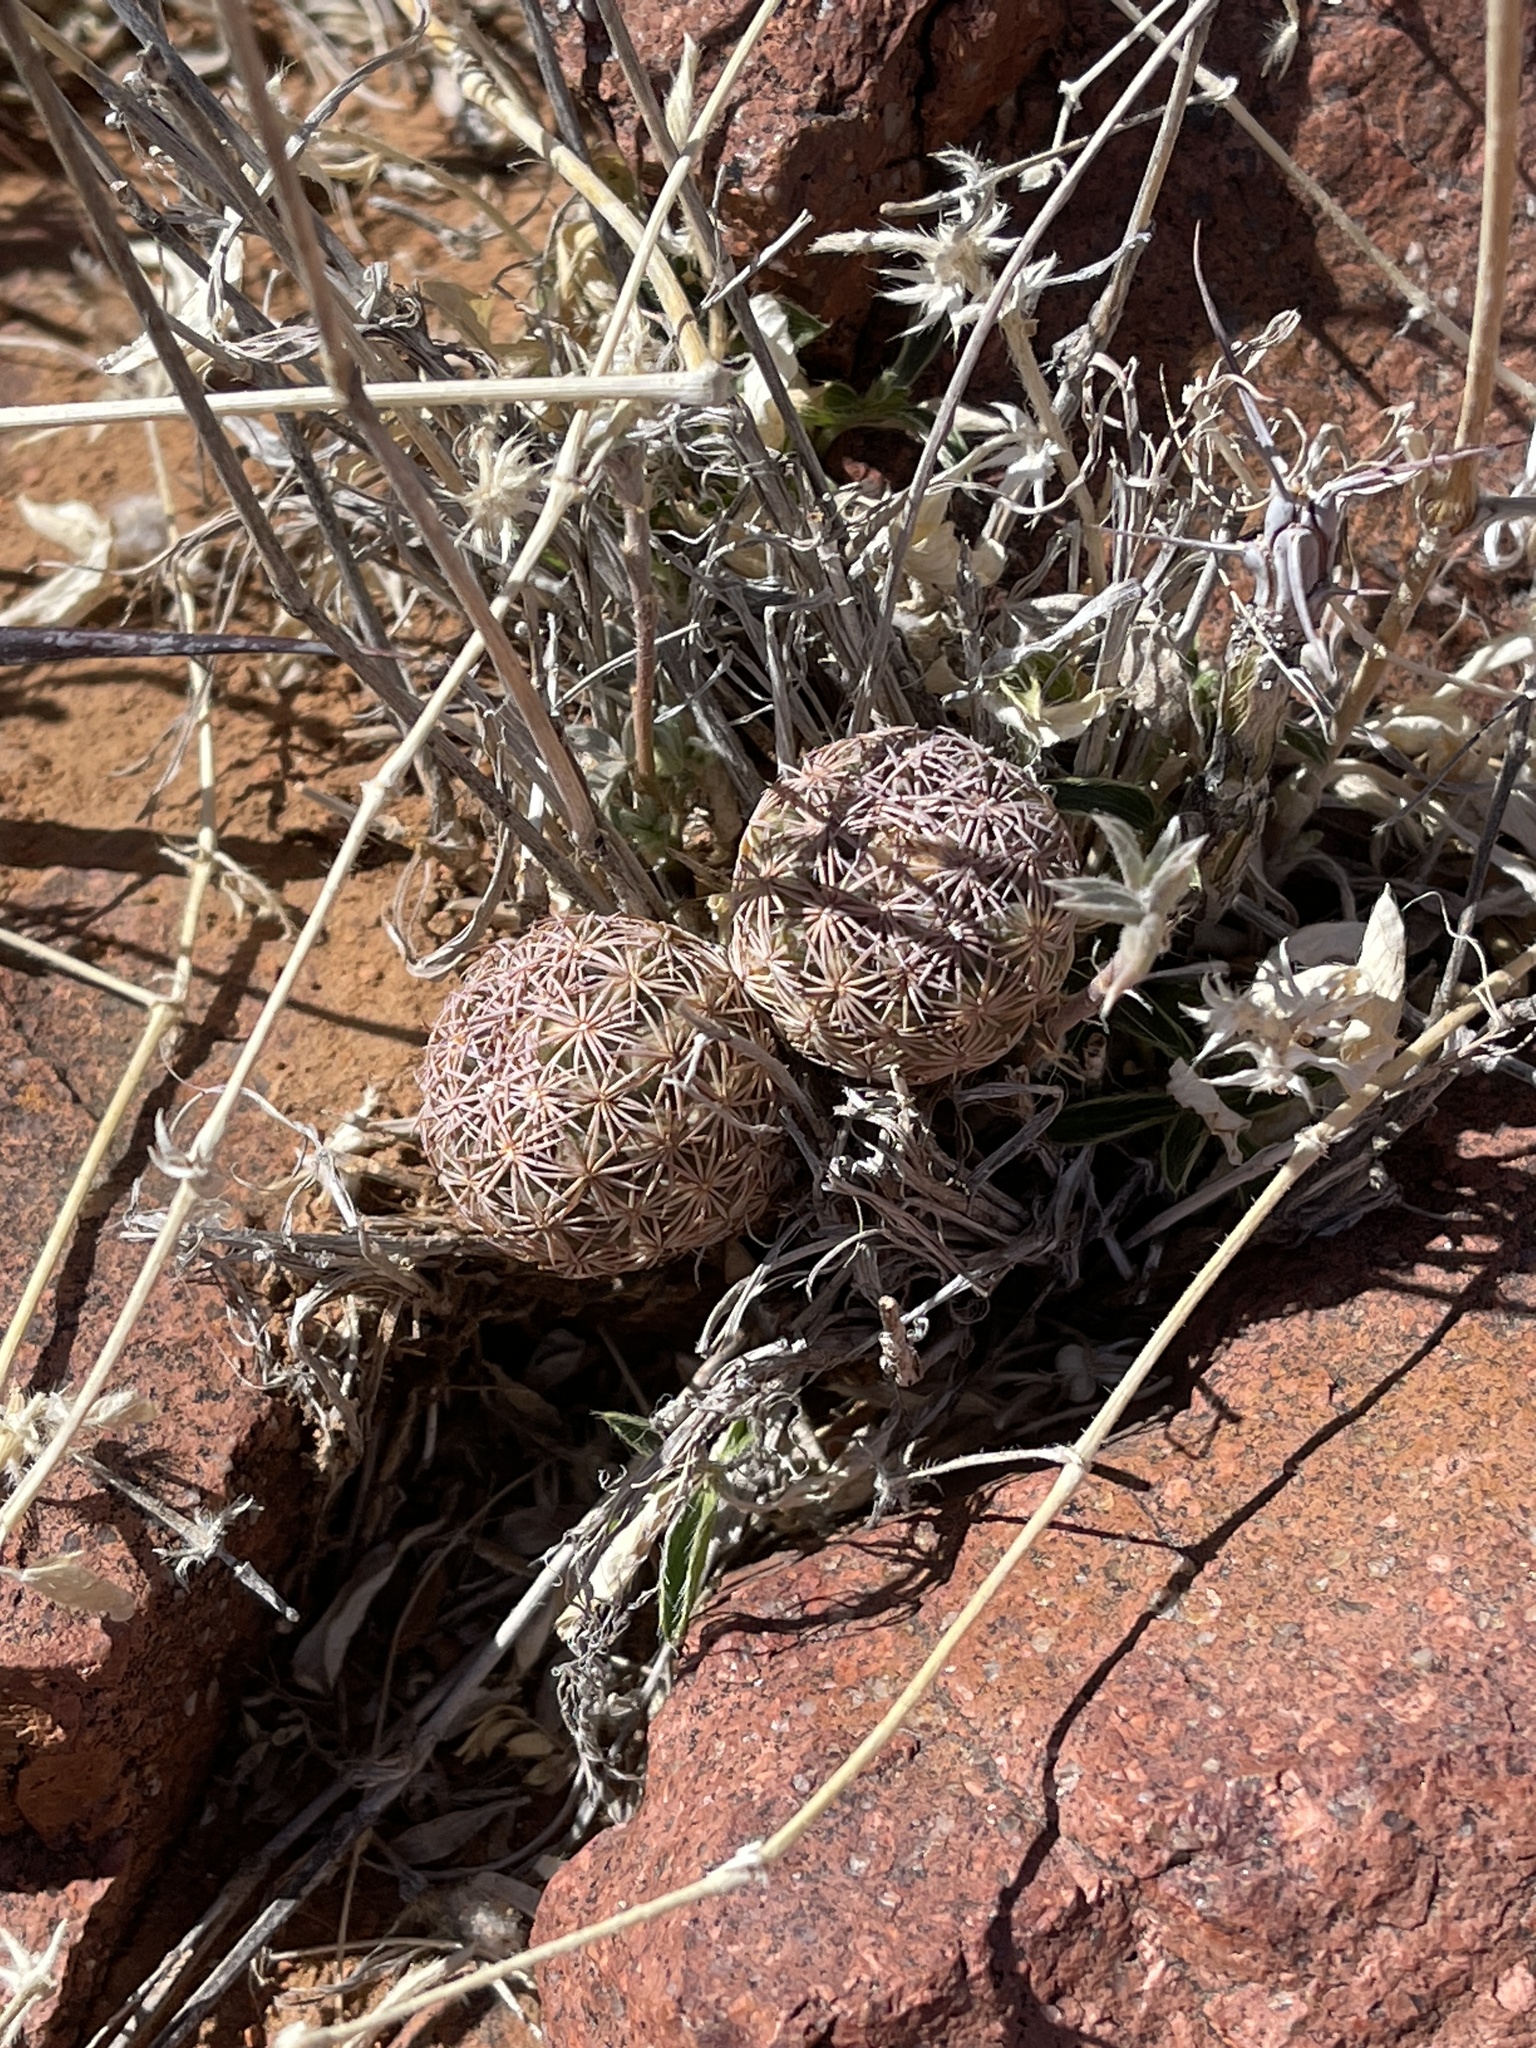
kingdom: Plantae
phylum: Tracheophyta
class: Magnoliopsida
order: Caryophyllales
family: Cactaceae
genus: Sclerocactus
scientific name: Sclerocactus intertextus
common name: White fish-hook cactus
